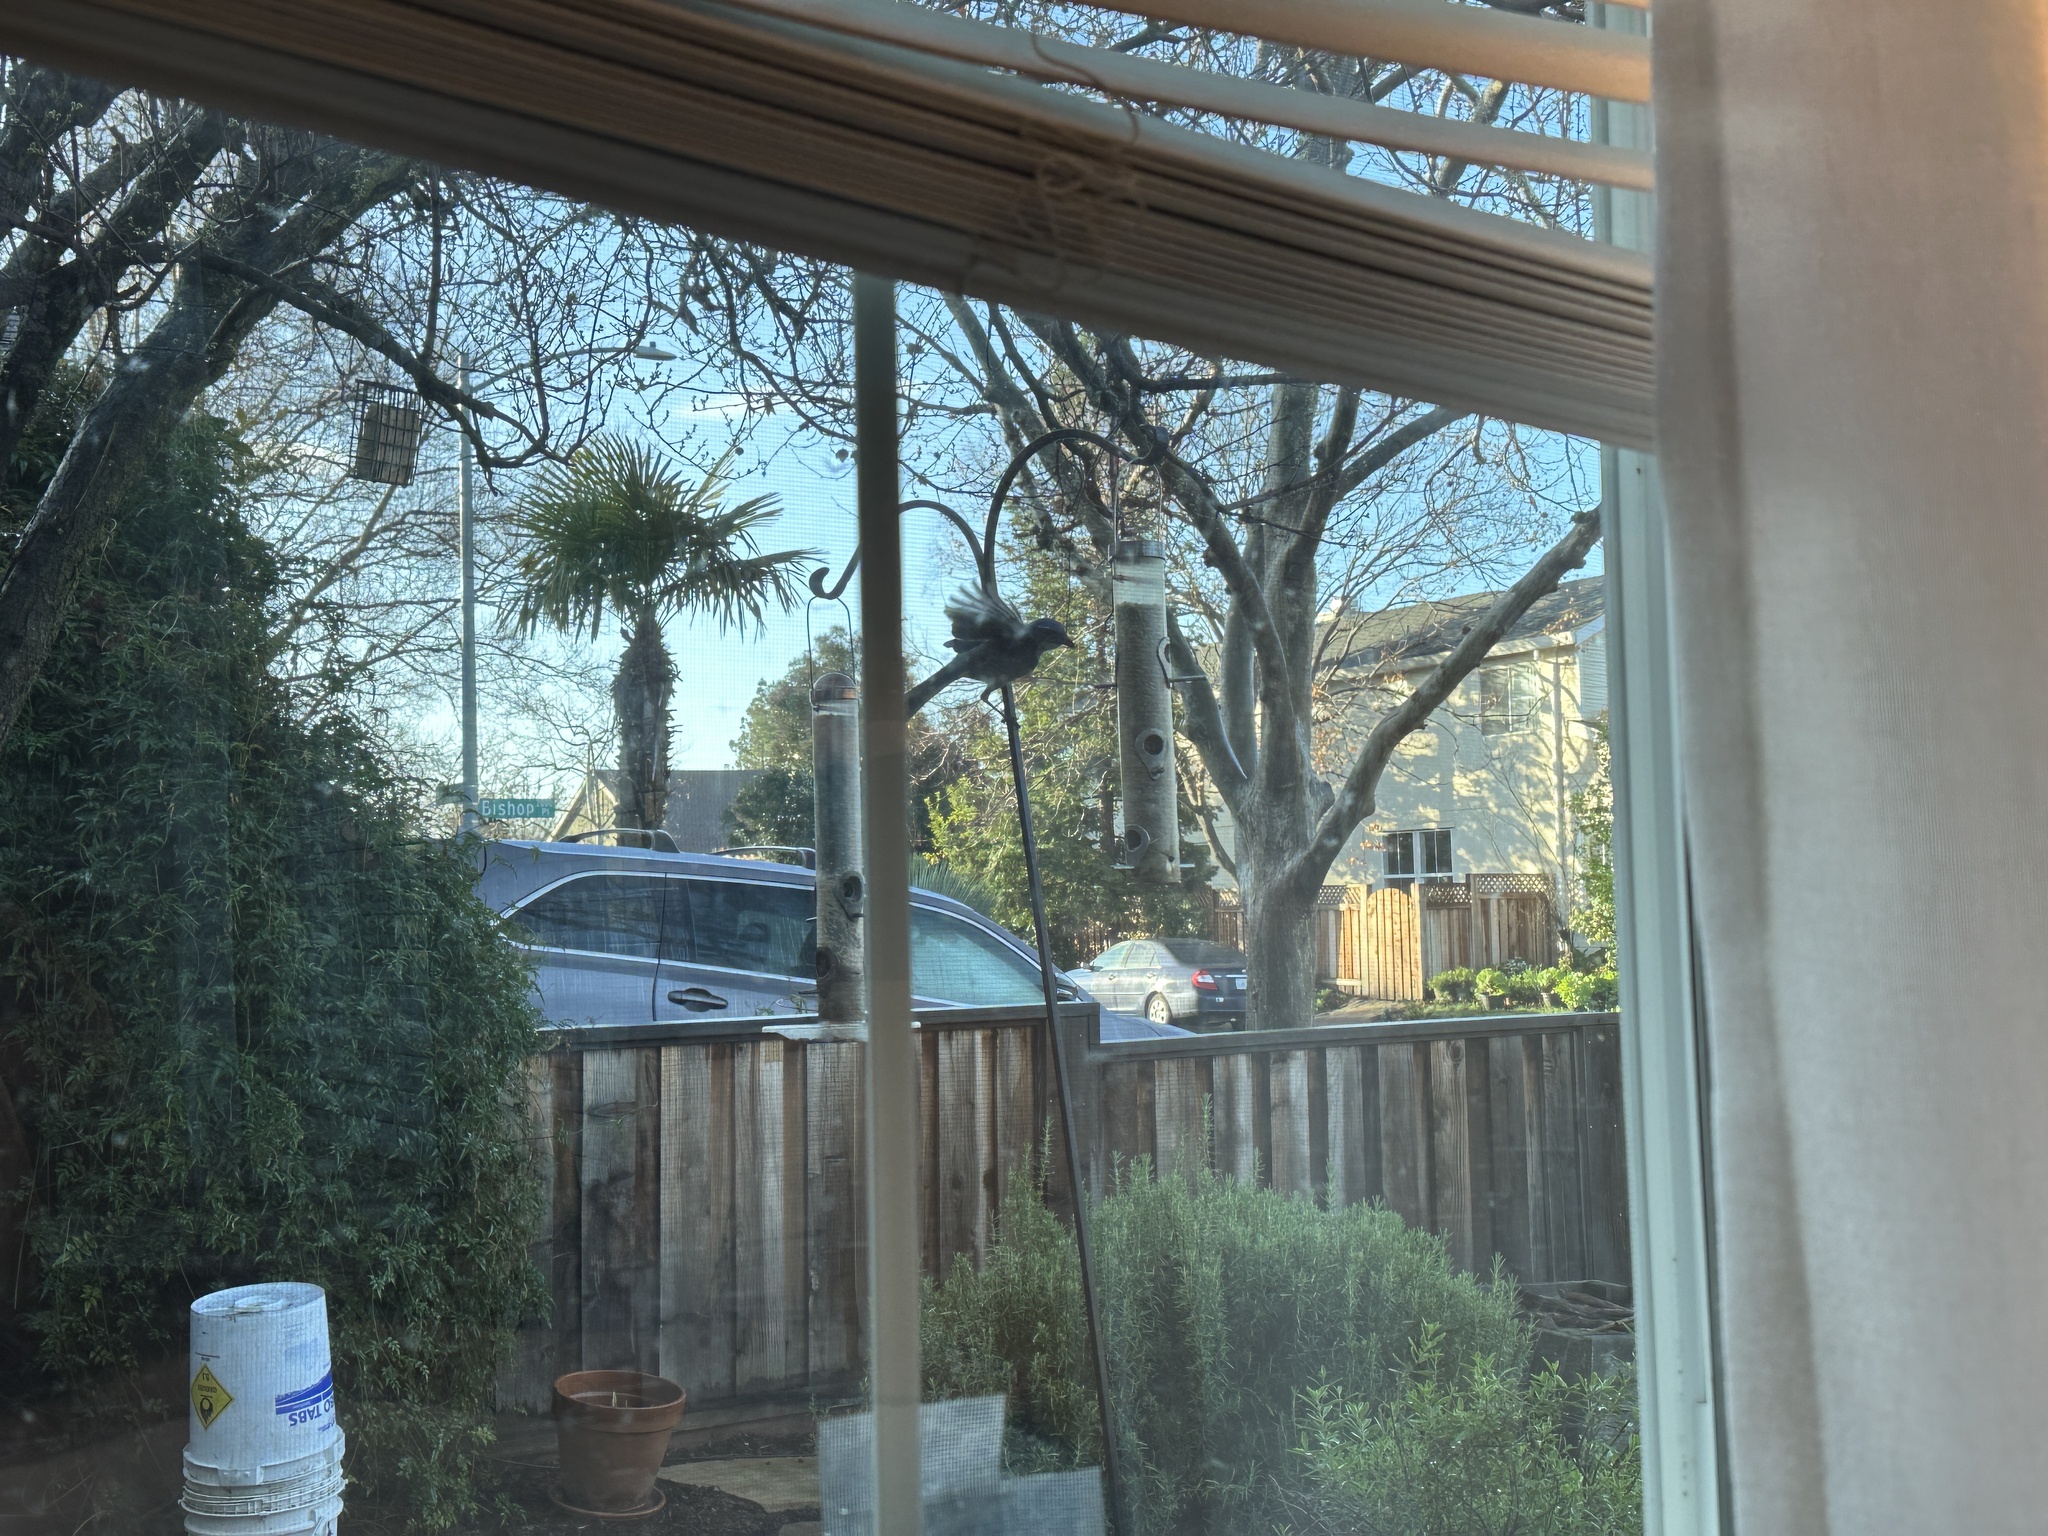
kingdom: Animalia
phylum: Chordata
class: Aves
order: Passeriformes
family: Corvidae
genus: Aphelocoma
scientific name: Aphelocoma californica
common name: California scrub-jay
